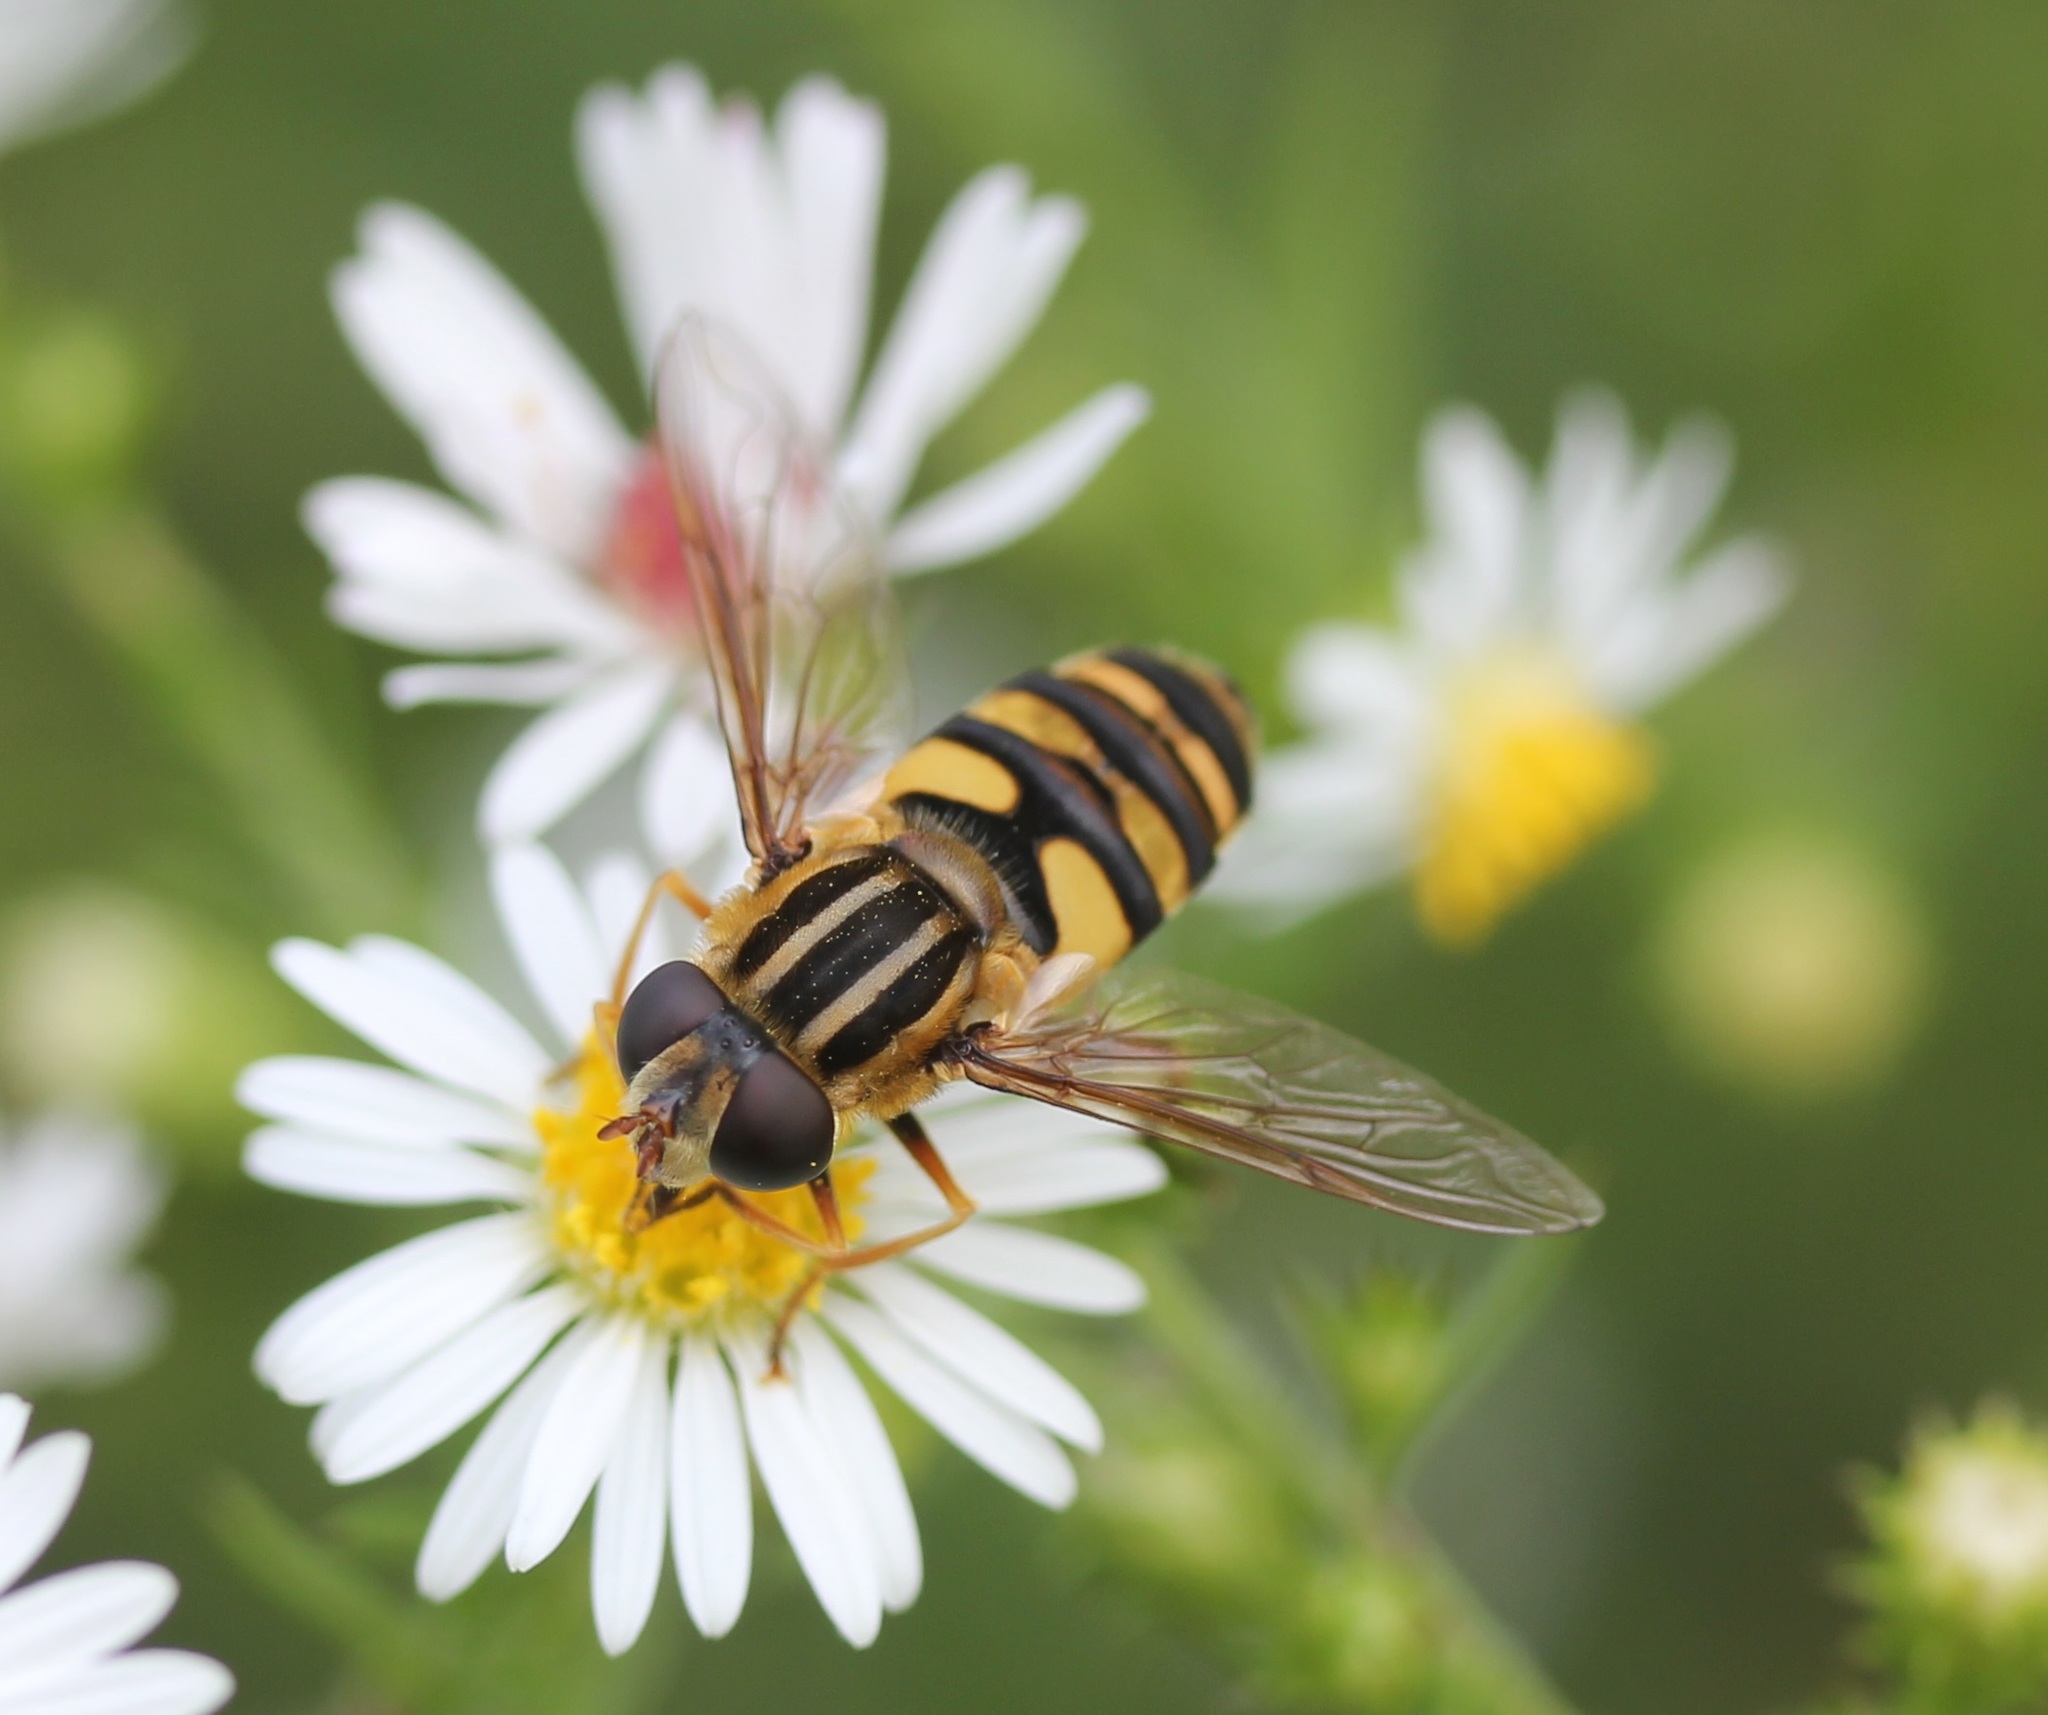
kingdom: Animalia
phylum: Arthropoda
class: Insecta
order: Diptera
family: Syrphidae
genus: Helophilus
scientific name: Helophilus fasciatus
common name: Narrow-headed marsh fly
